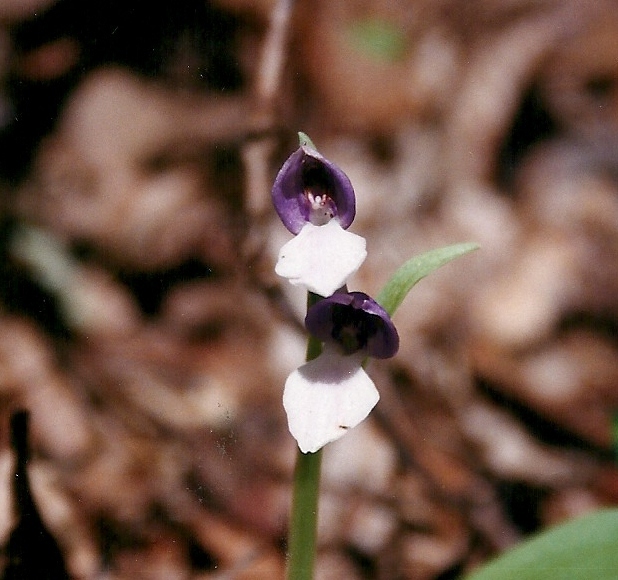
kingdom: Plantae
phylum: Tracheophyta
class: Liliopsida
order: Asparagales
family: Orchidaceae
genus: Galearis
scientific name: Galearis spectabilis
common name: Purple-hooded orchis
